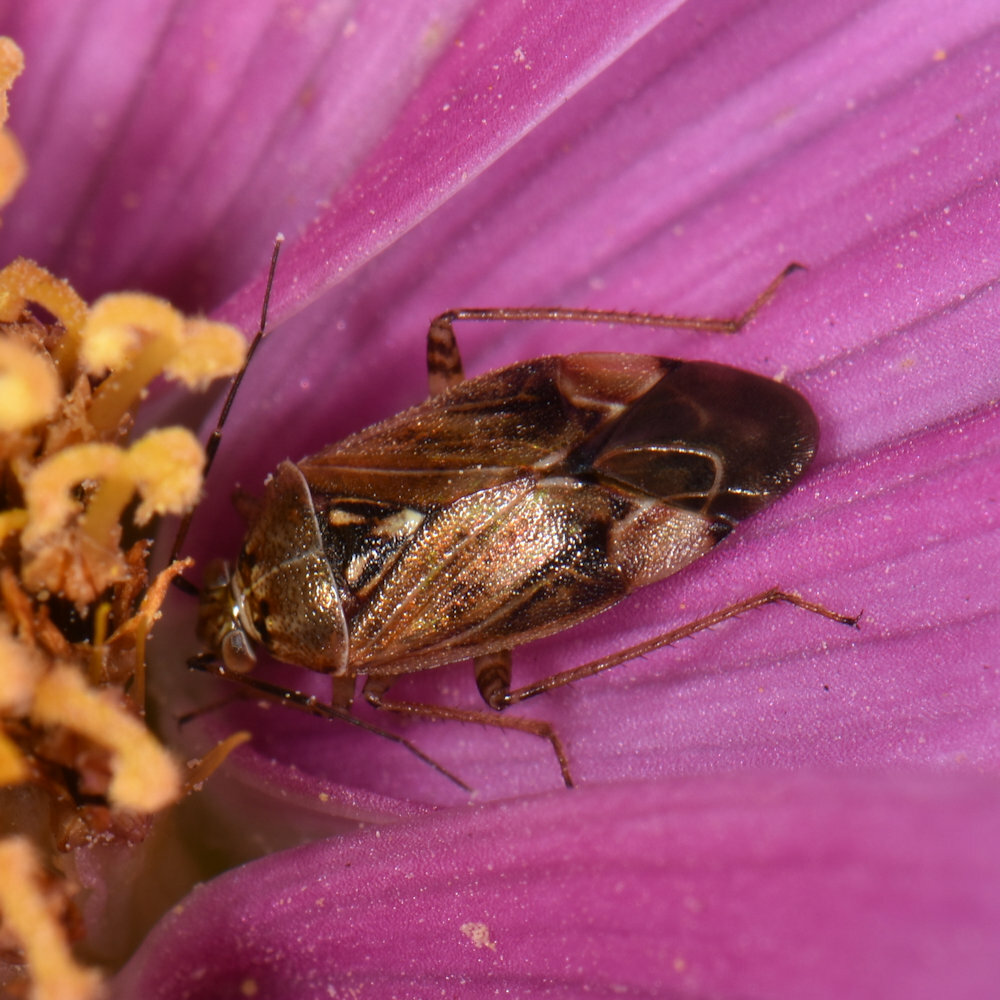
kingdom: Animalia
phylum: Arthropoda
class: Insecta
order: Hemiptera
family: Miridae
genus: Lygus
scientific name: Lygus lineolaris
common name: North american tarnished plant bug
